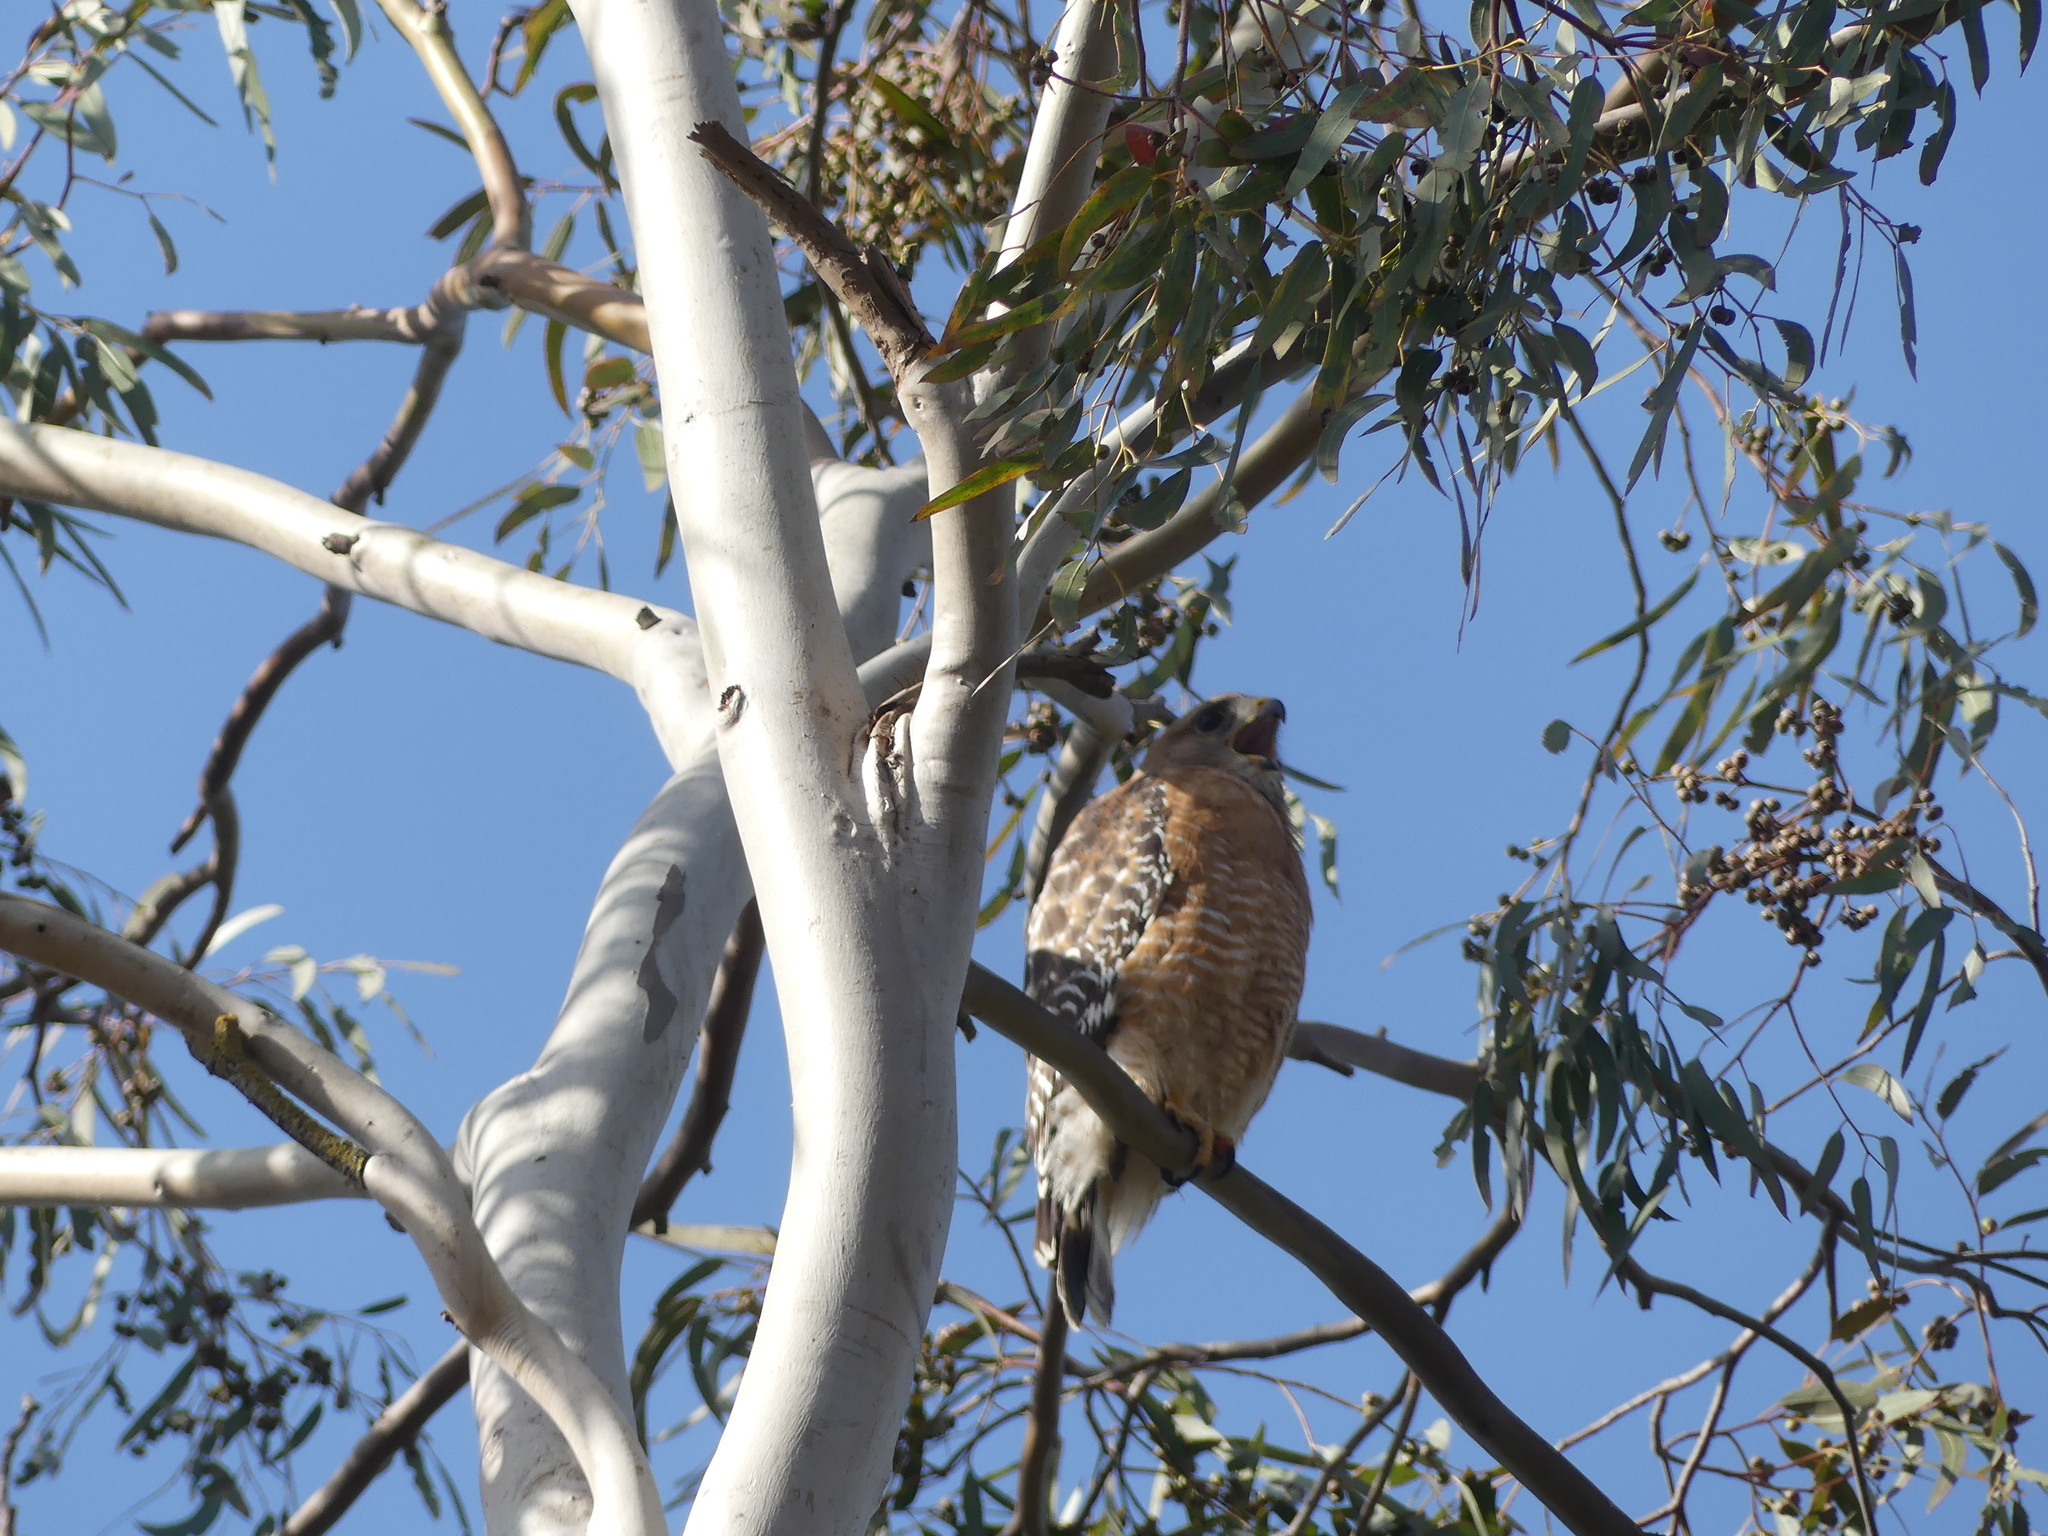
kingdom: Animalia
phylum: Chordata
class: Aves
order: Accipitriformes
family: Accipitridae
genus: Buteo
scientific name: Buteo lineatus
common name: Red-shouldered hawk
